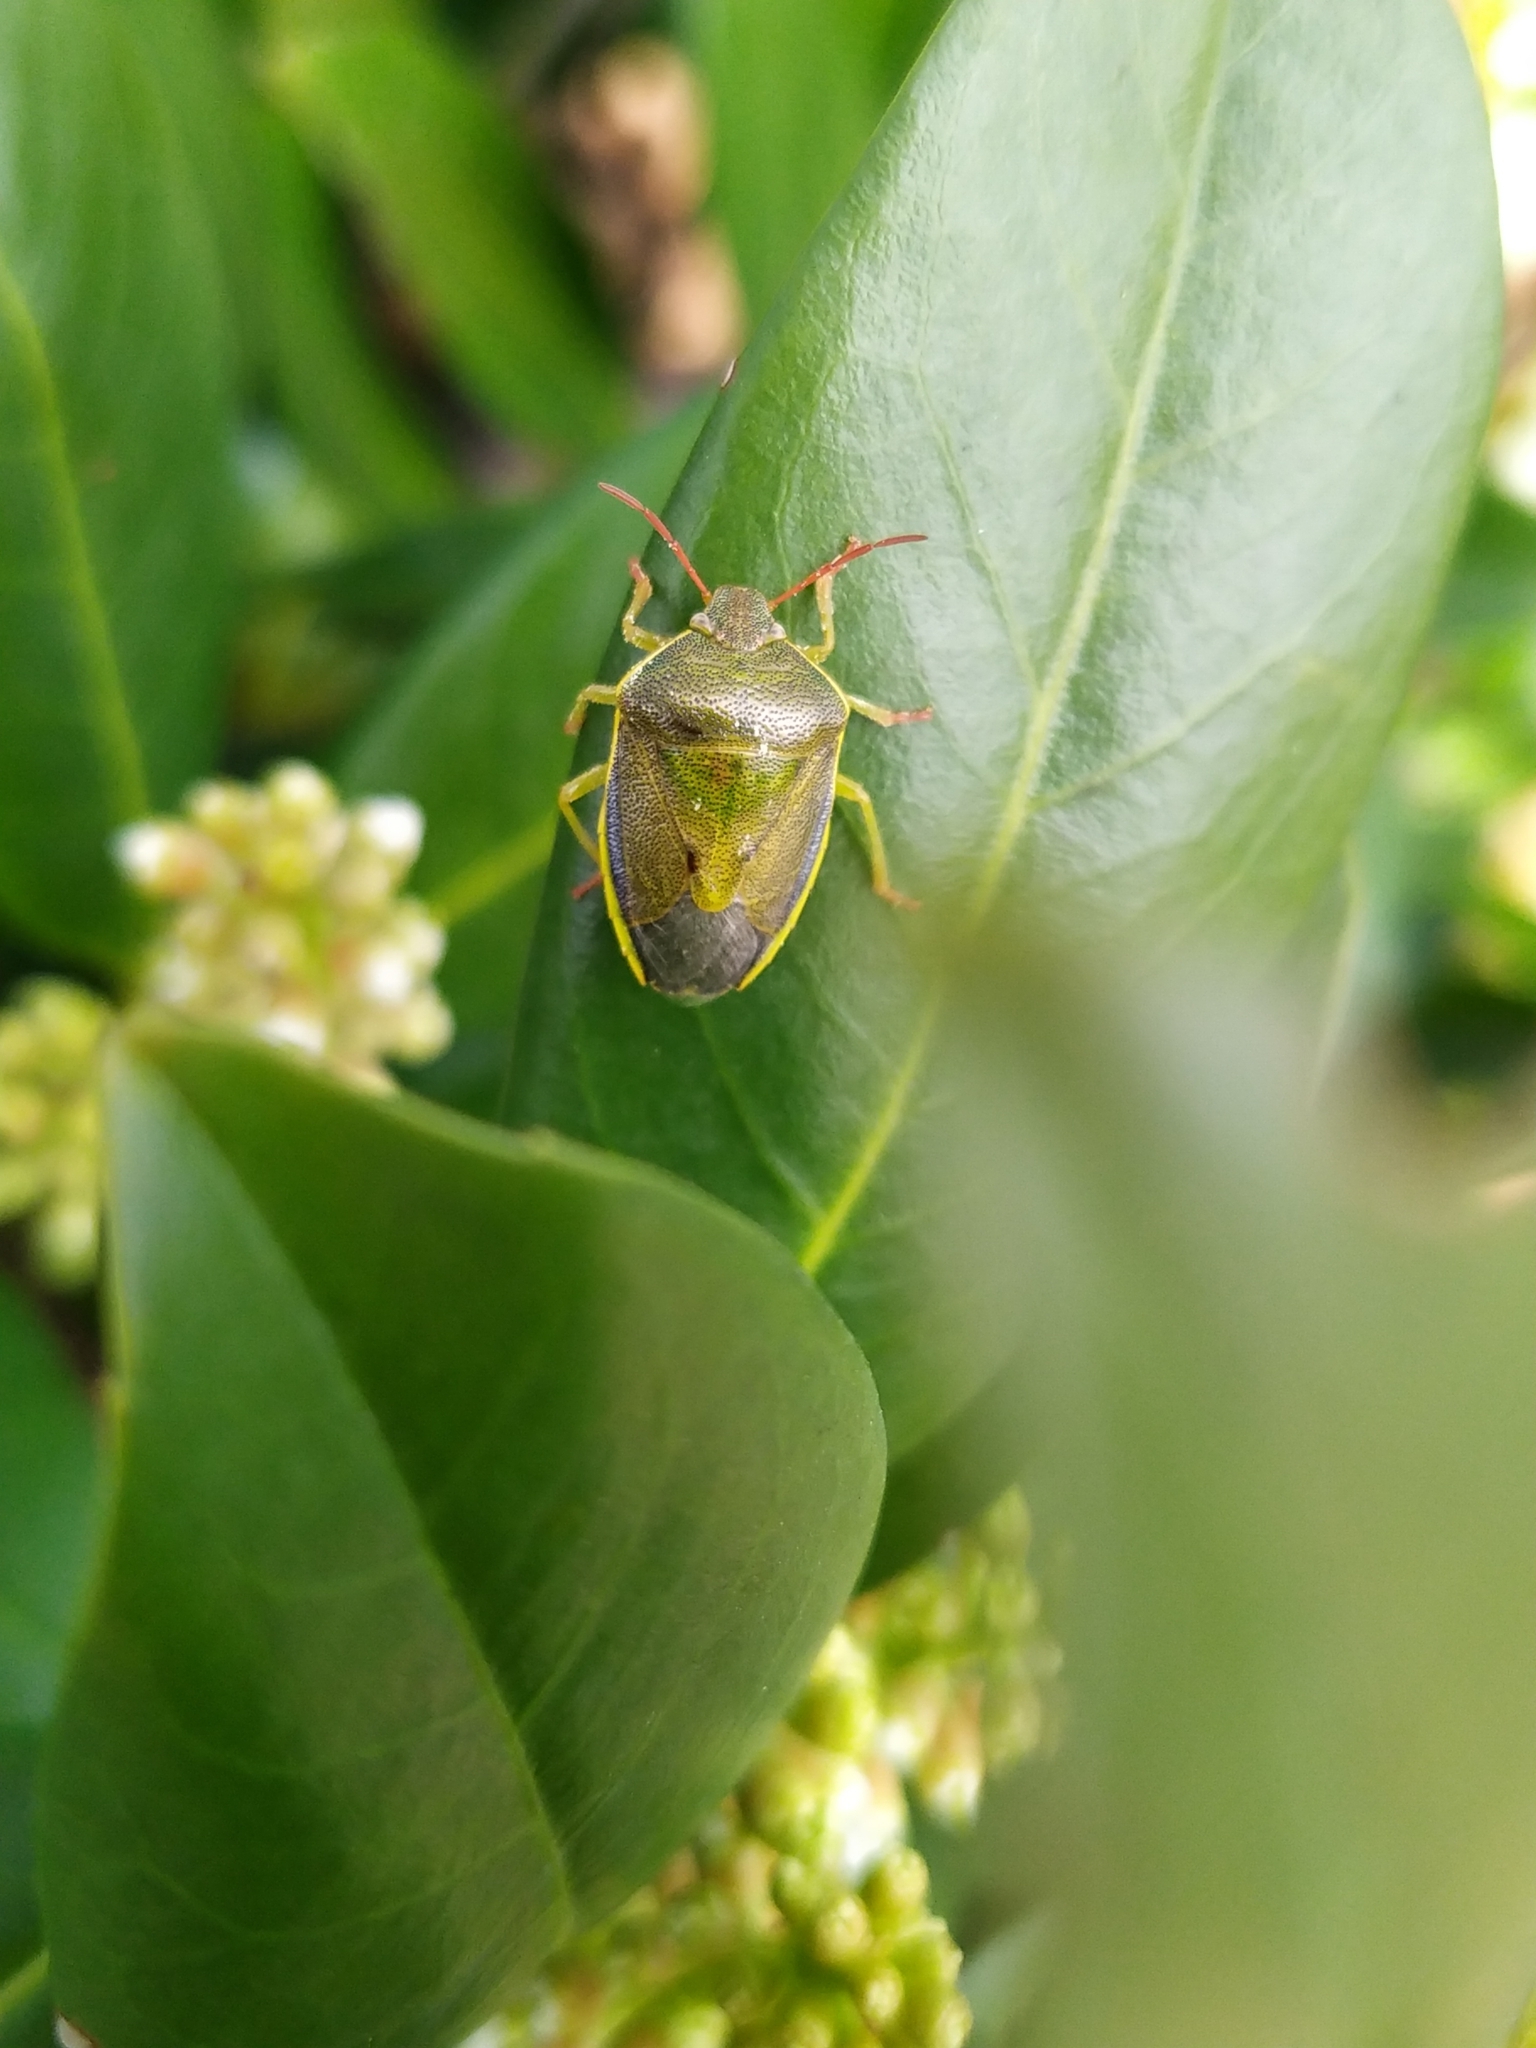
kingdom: Animalia
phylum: Arthropoda
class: Insecta
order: Hemiptera
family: Pentatomidae
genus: Piezodorus
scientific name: Piezodorus lituratus
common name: Stink bug
